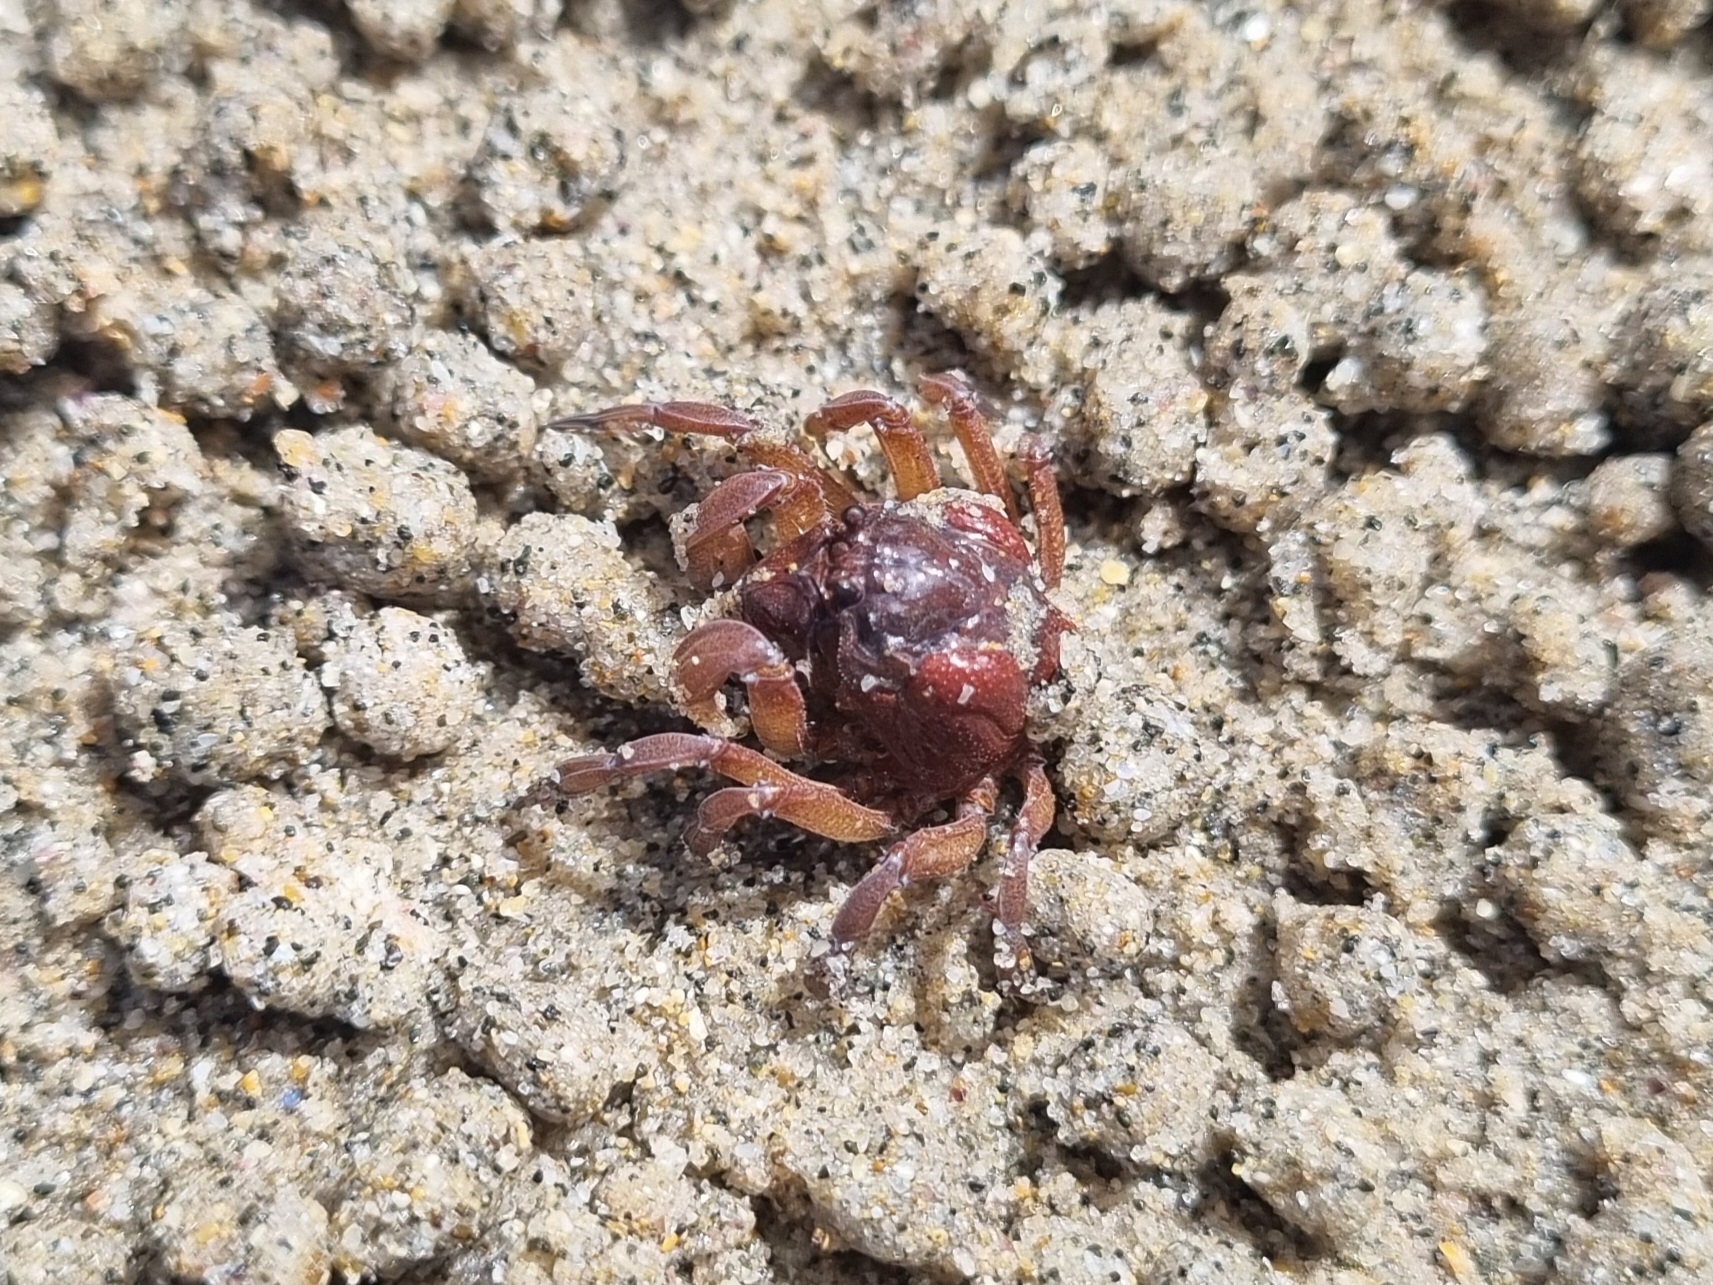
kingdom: Animalia
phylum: Arthropoda
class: Malacostraca
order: Decapoda
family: Mictyridae
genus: Mictyris
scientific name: Mictyris platycheles
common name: Dark blue soldier crab
